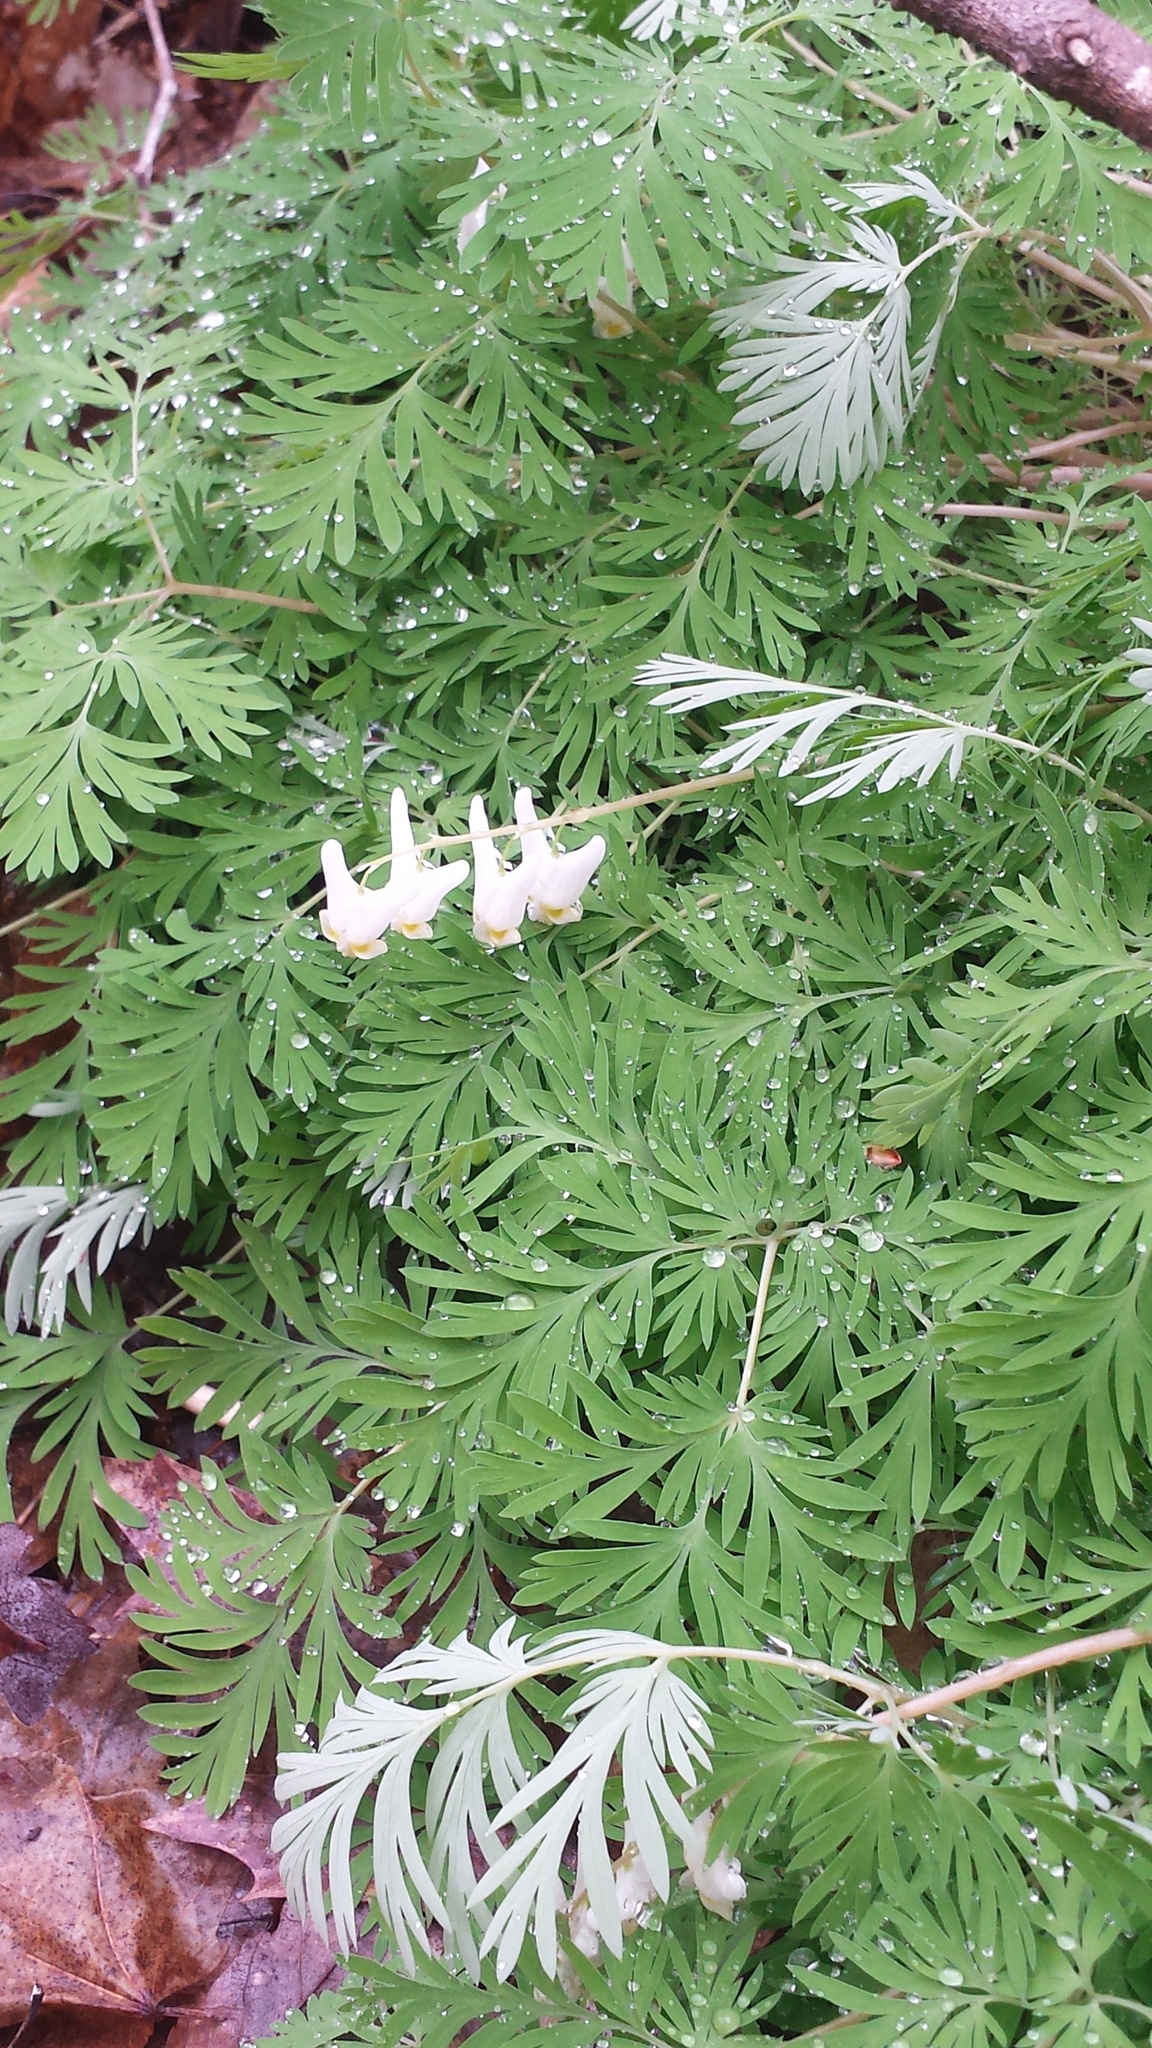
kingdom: Plantae
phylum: Tracheophyta
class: Magnoliopsida
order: Ranunculales
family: Papaveraceae
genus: Dicentra
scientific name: Dicentra cucullaria
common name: Dutchman's breeches
